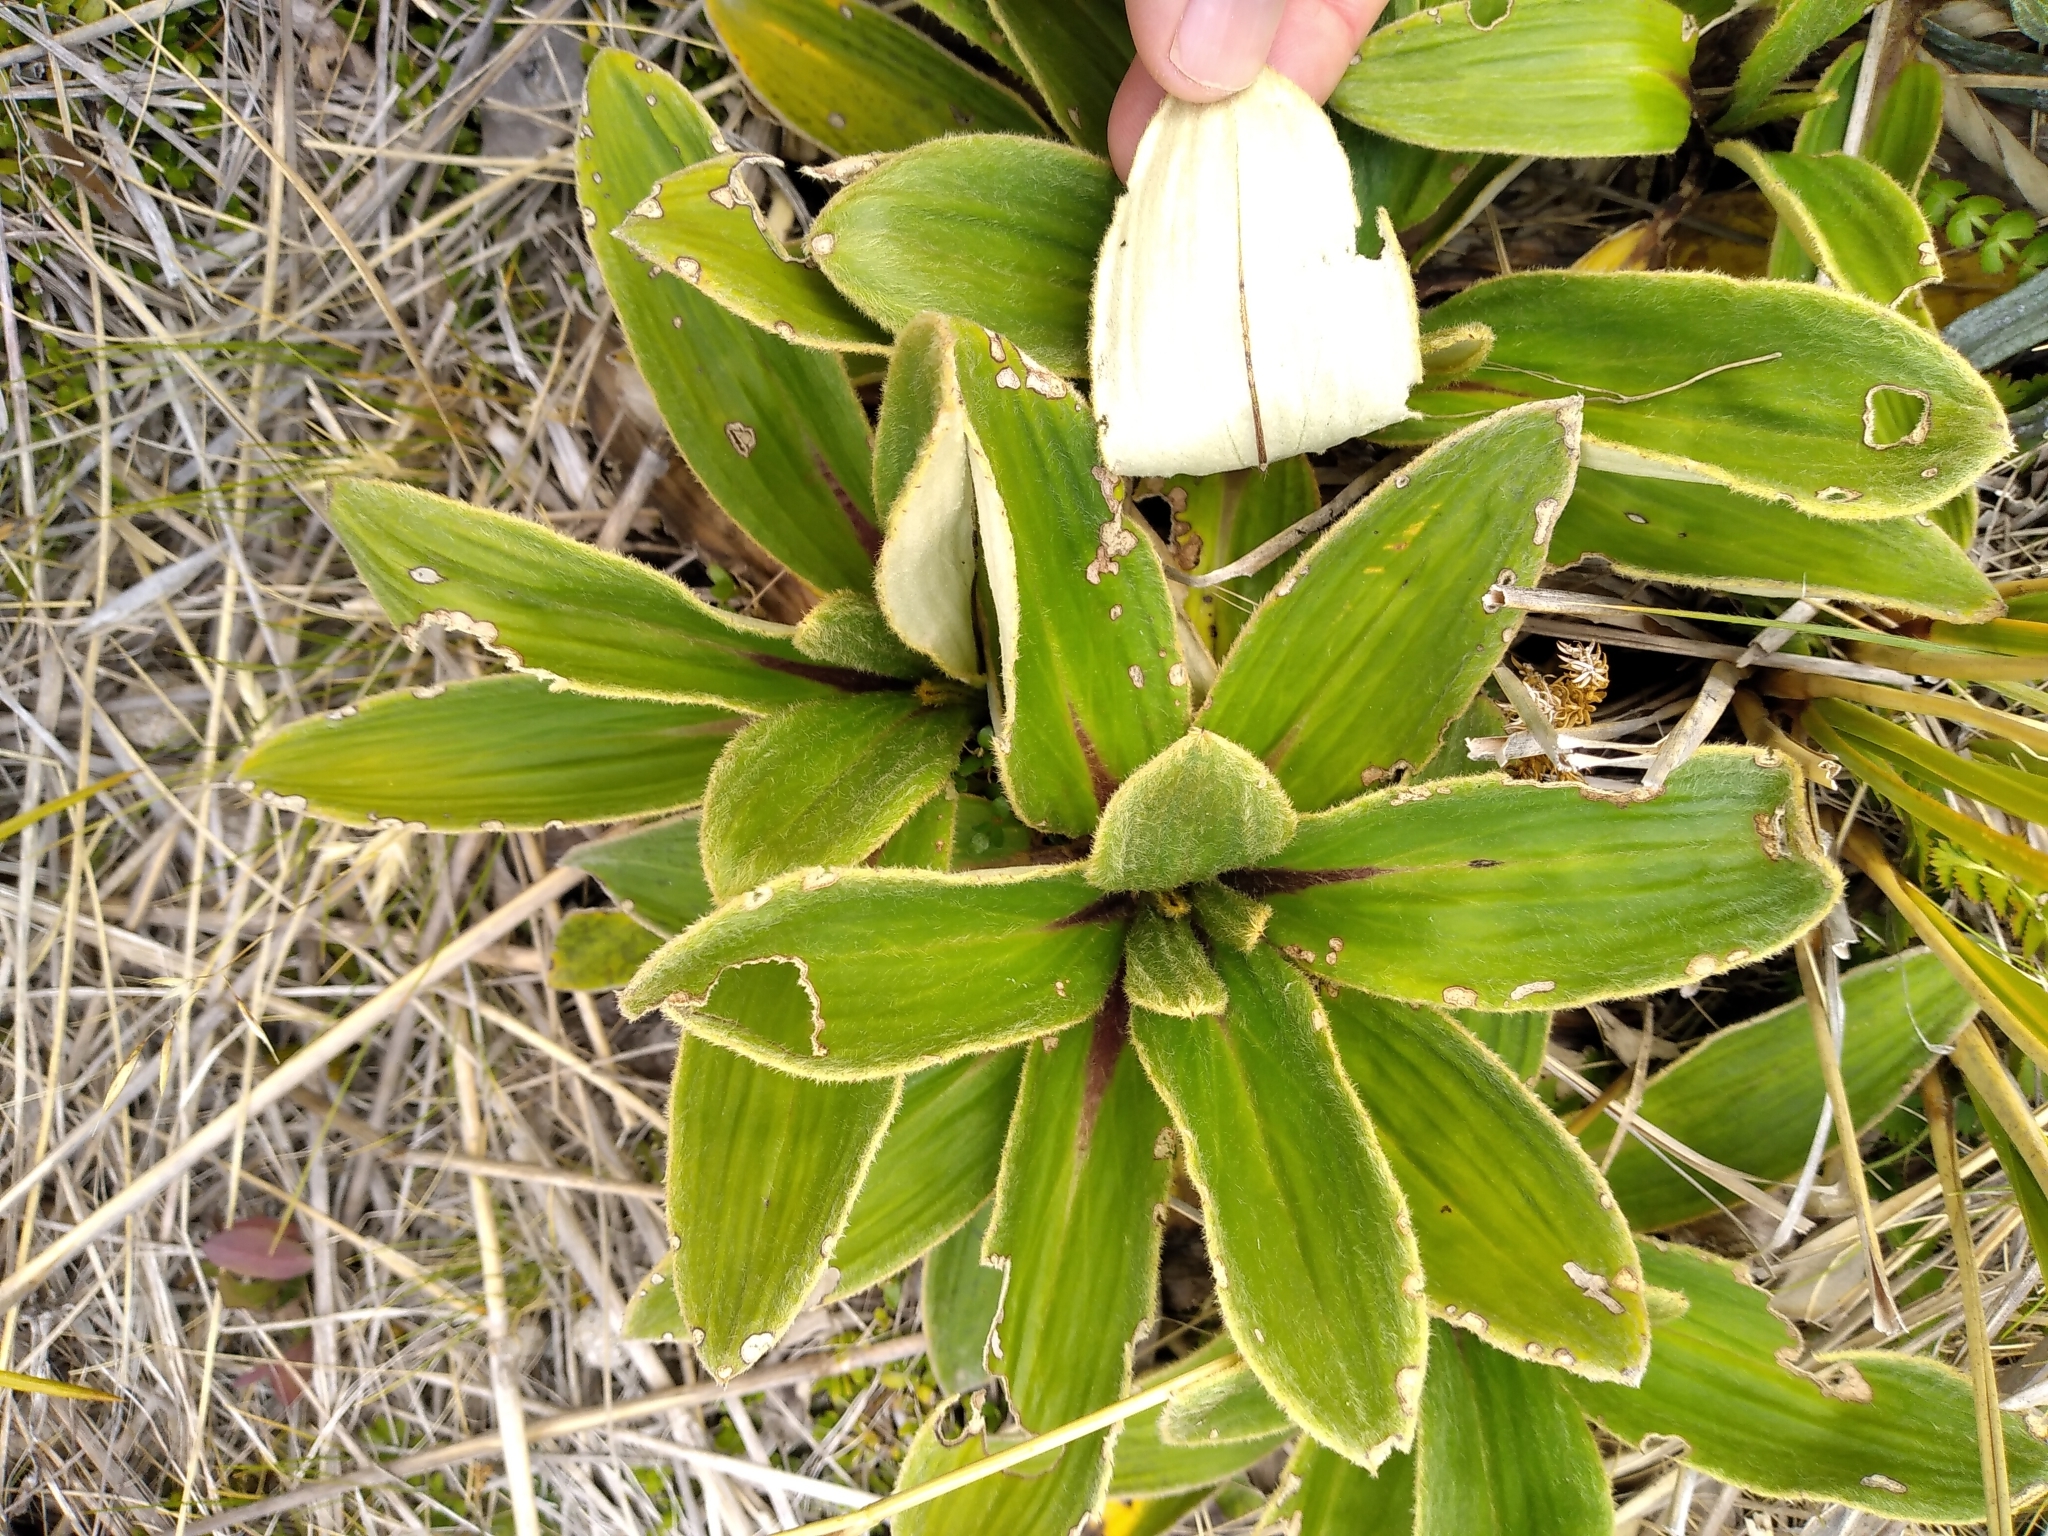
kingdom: Plantae
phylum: Tracheophyta
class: Magnoliopsida
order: Asterales
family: Asteraceae
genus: Celmisia
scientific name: Celmisia verbascifolia
